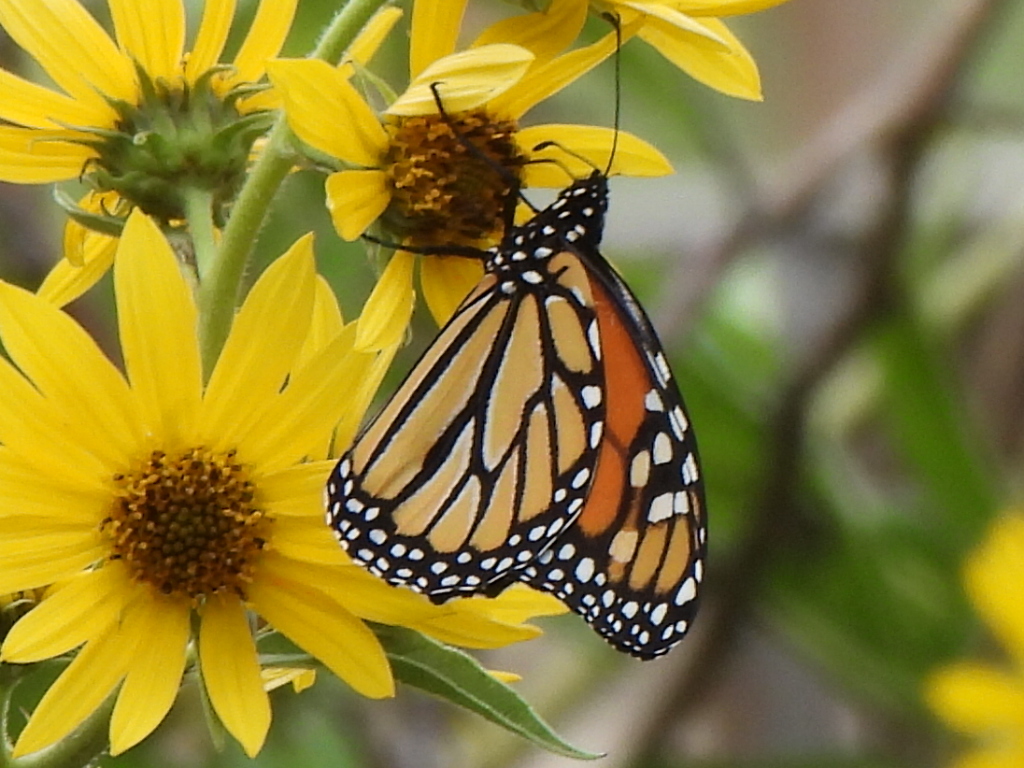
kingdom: Animalia
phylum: Arthropoda
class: Insecta
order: Lepidoptera
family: Nymphalidae
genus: Danaus
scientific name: Danaus plexippus
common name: Monarch
